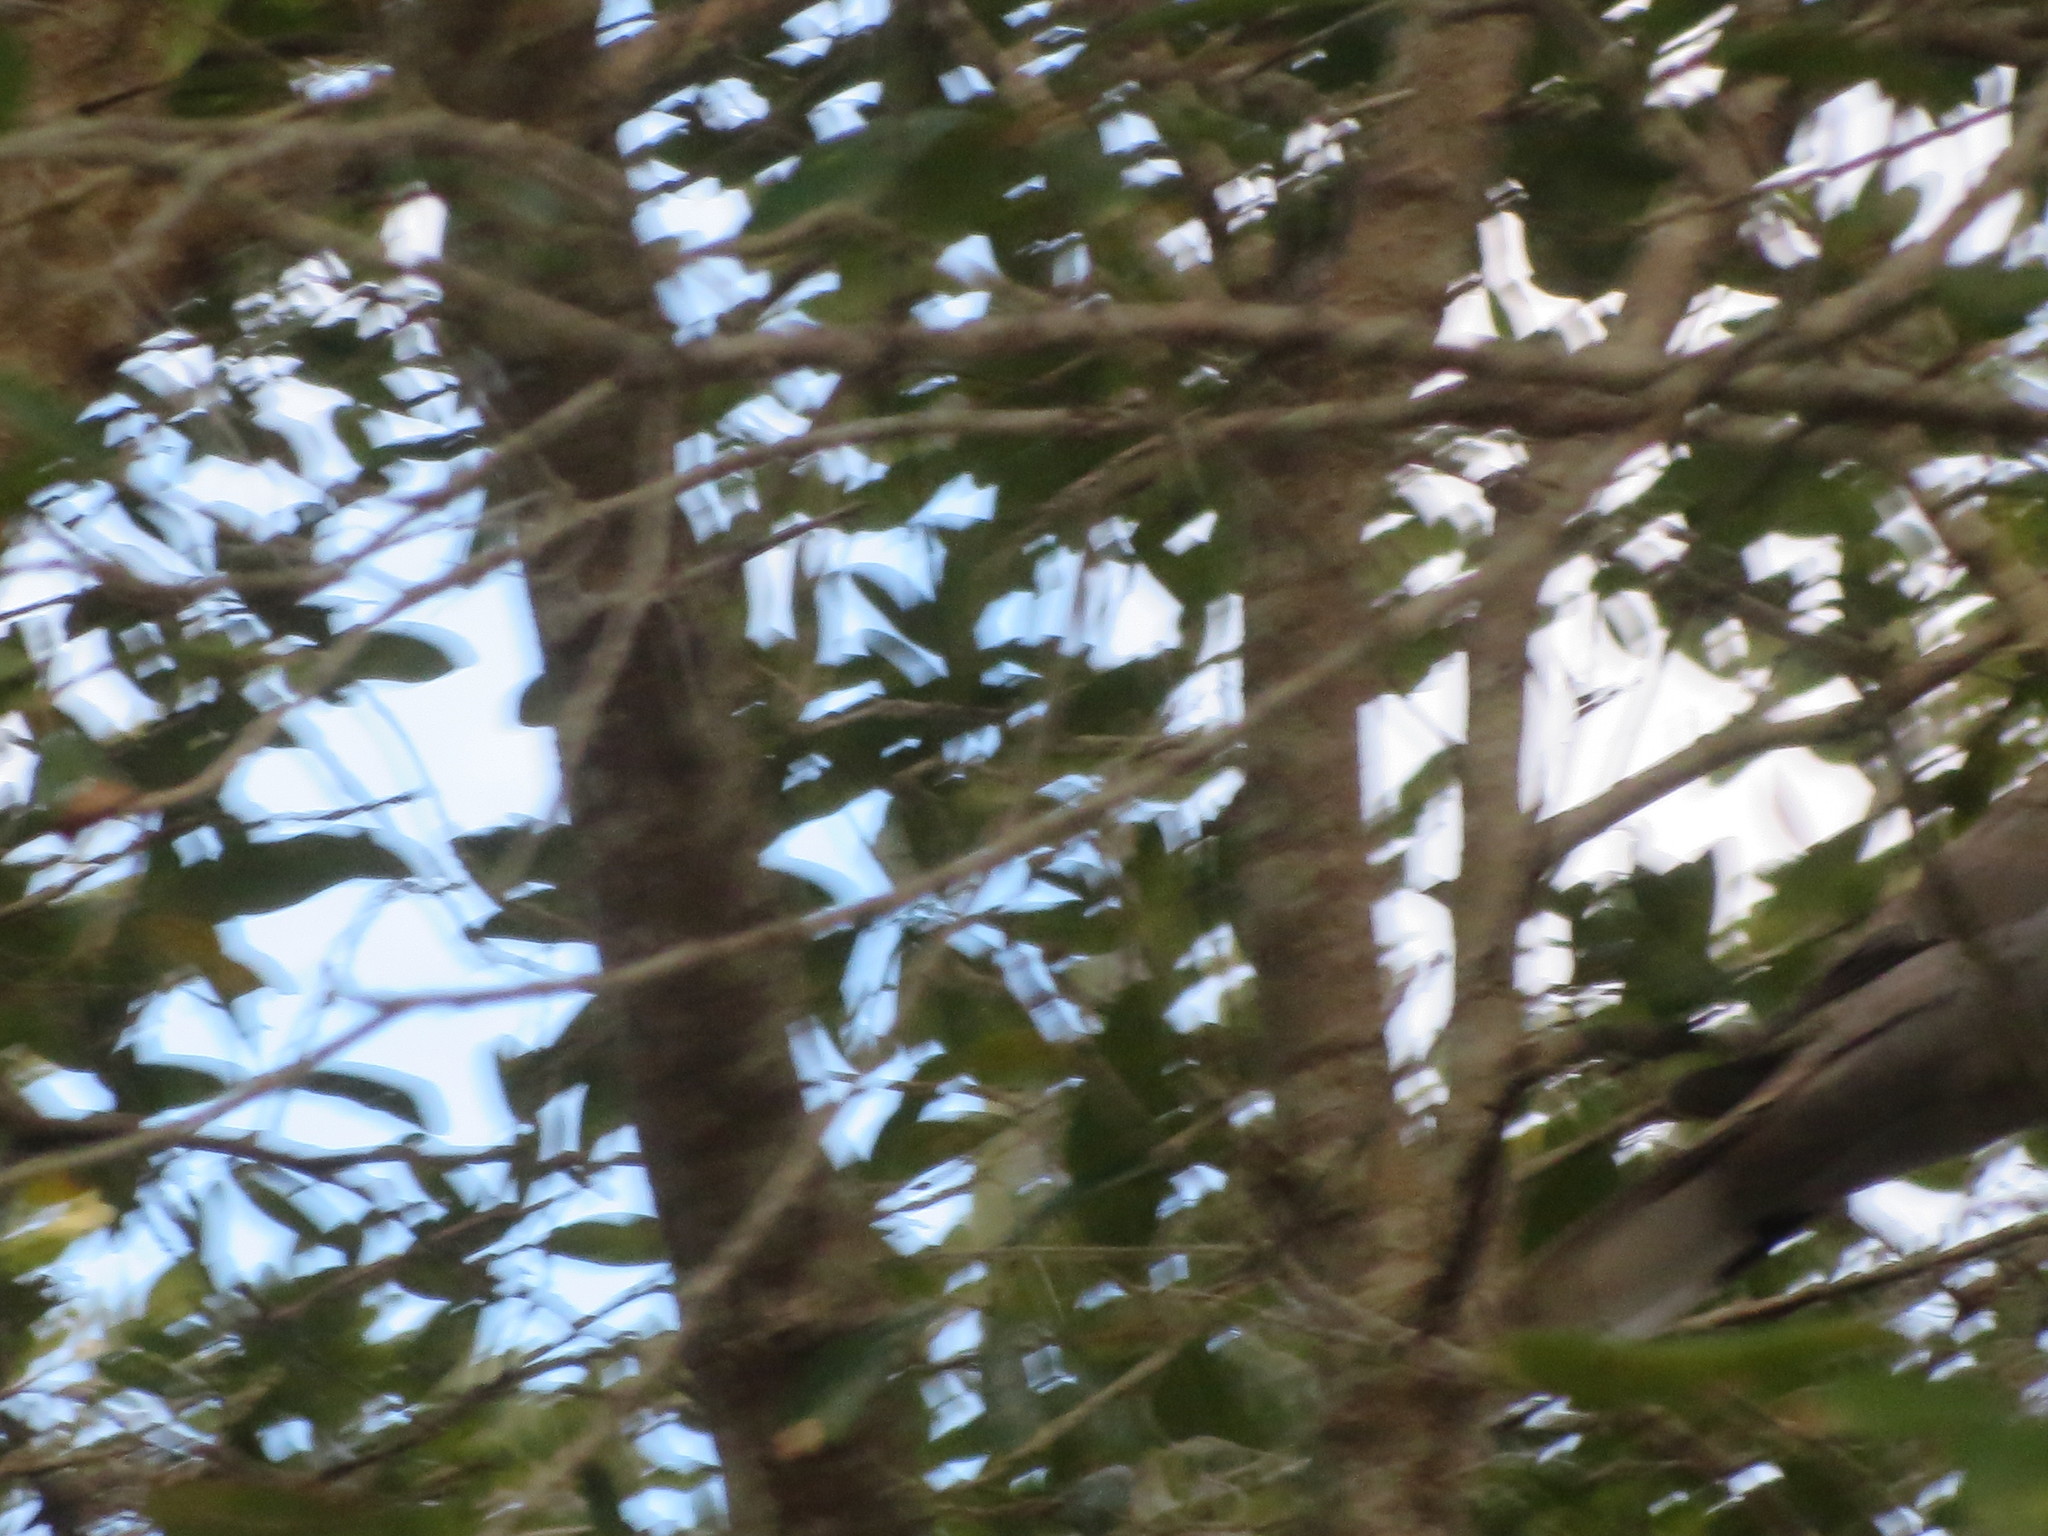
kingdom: Animalia
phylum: Chordata
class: Aves
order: Columbiformes
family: Columbidae
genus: Streptopelia
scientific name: Streptopelia decaocto
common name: Eurasian collared dove
